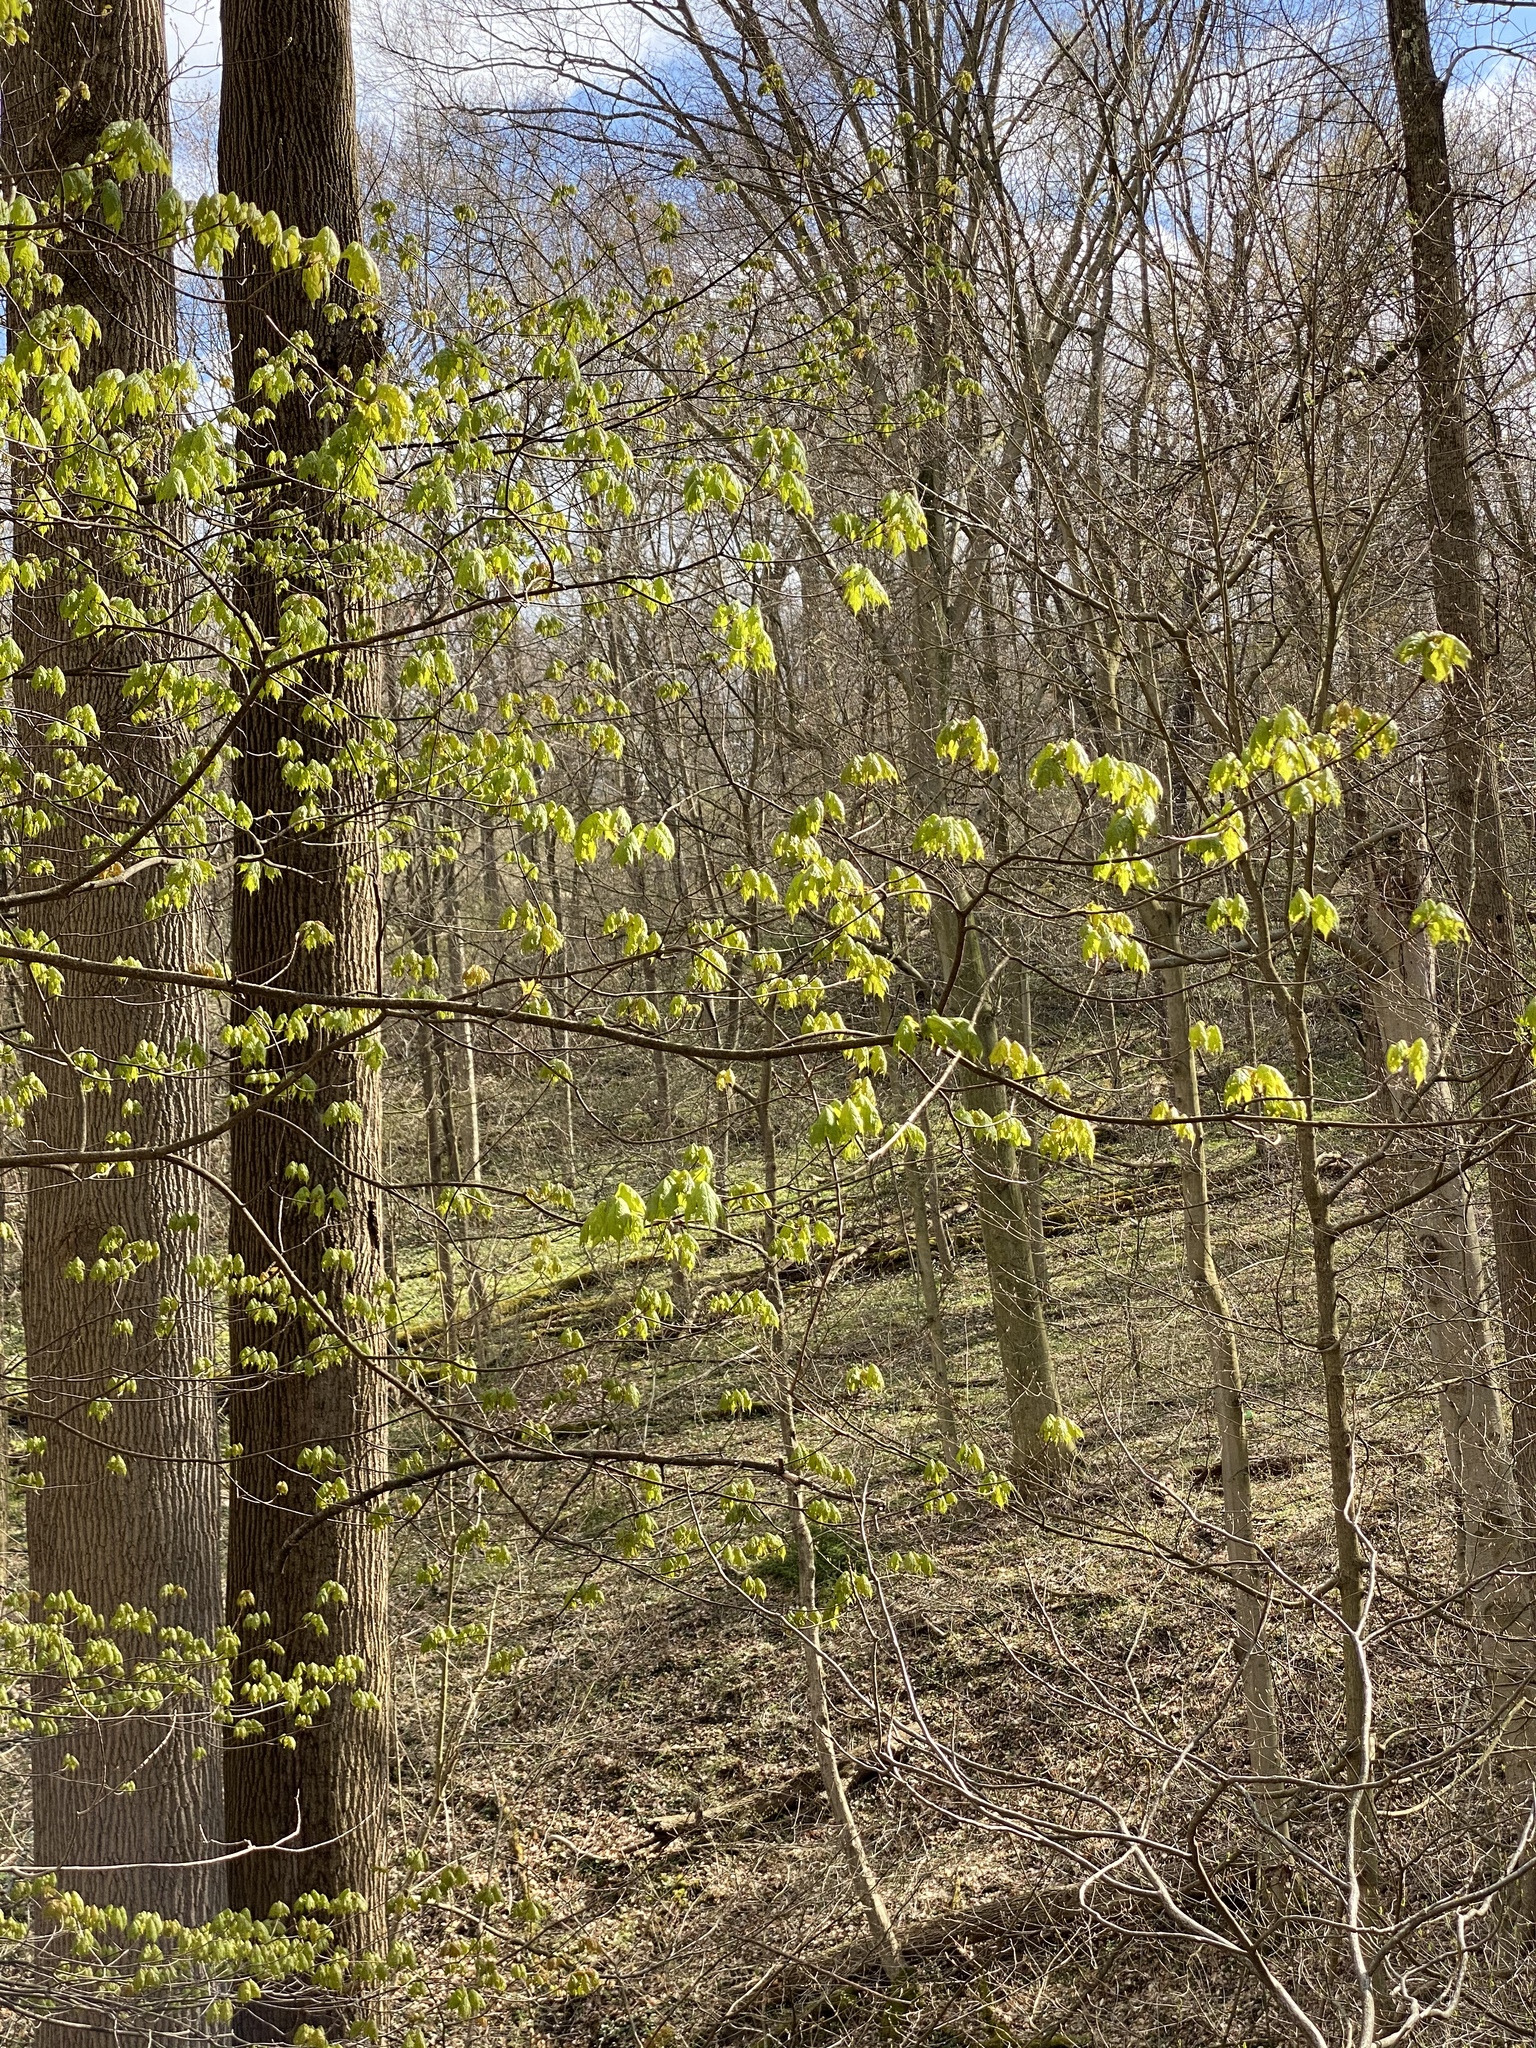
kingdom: Plantae
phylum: Tracheophyta
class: Magnoliopsida
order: Sapindales
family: Sapindaceae
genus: Acer
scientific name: Acer saccharum
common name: Sugar maple
